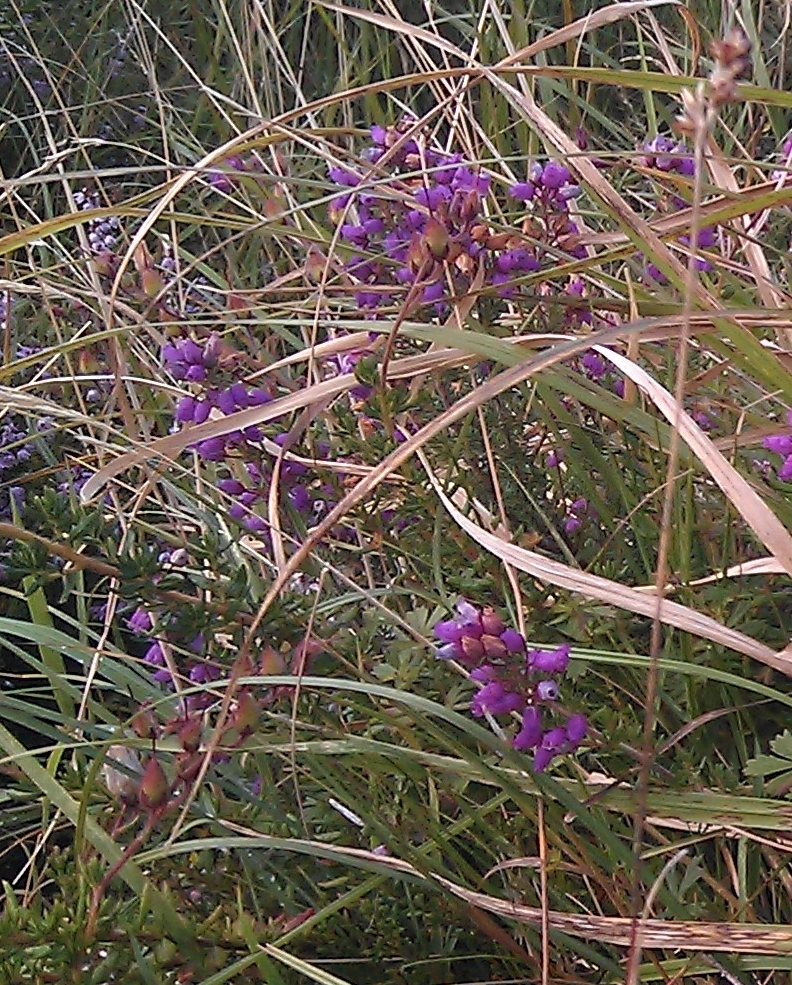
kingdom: Plantae
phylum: Tracheophyta
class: Magnoliopsida
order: Ericales
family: Ericaceae
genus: Erica
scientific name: Erica cinerea
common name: Bell heather
